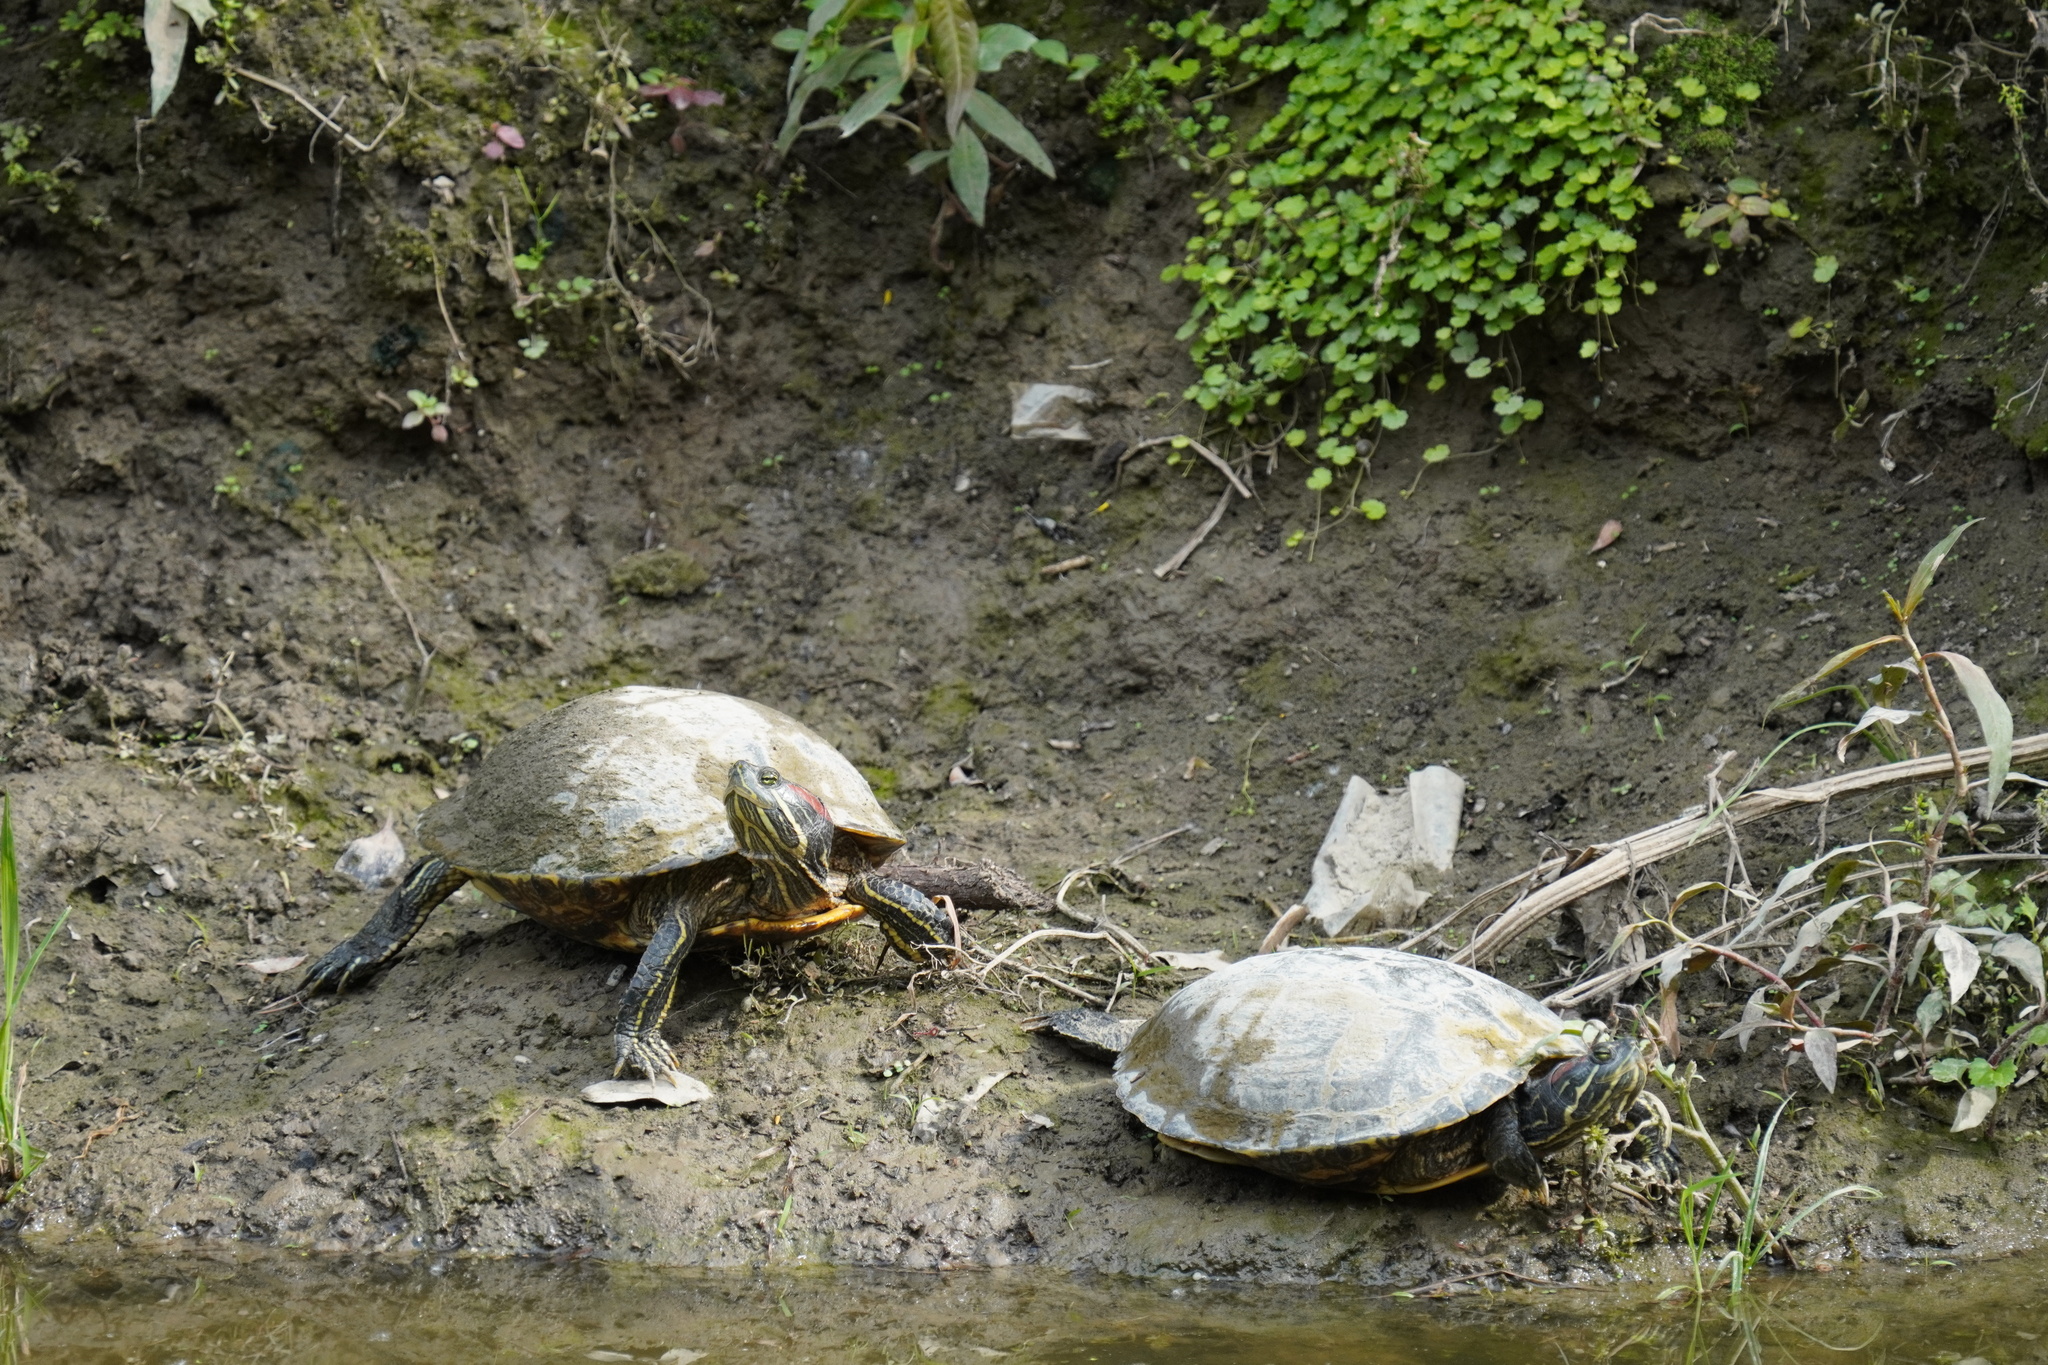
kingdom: Animalia
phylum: Chordata
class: Testudines
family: Emydidae
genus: Trachemys
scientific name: Trachemys scripta
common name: Slider
